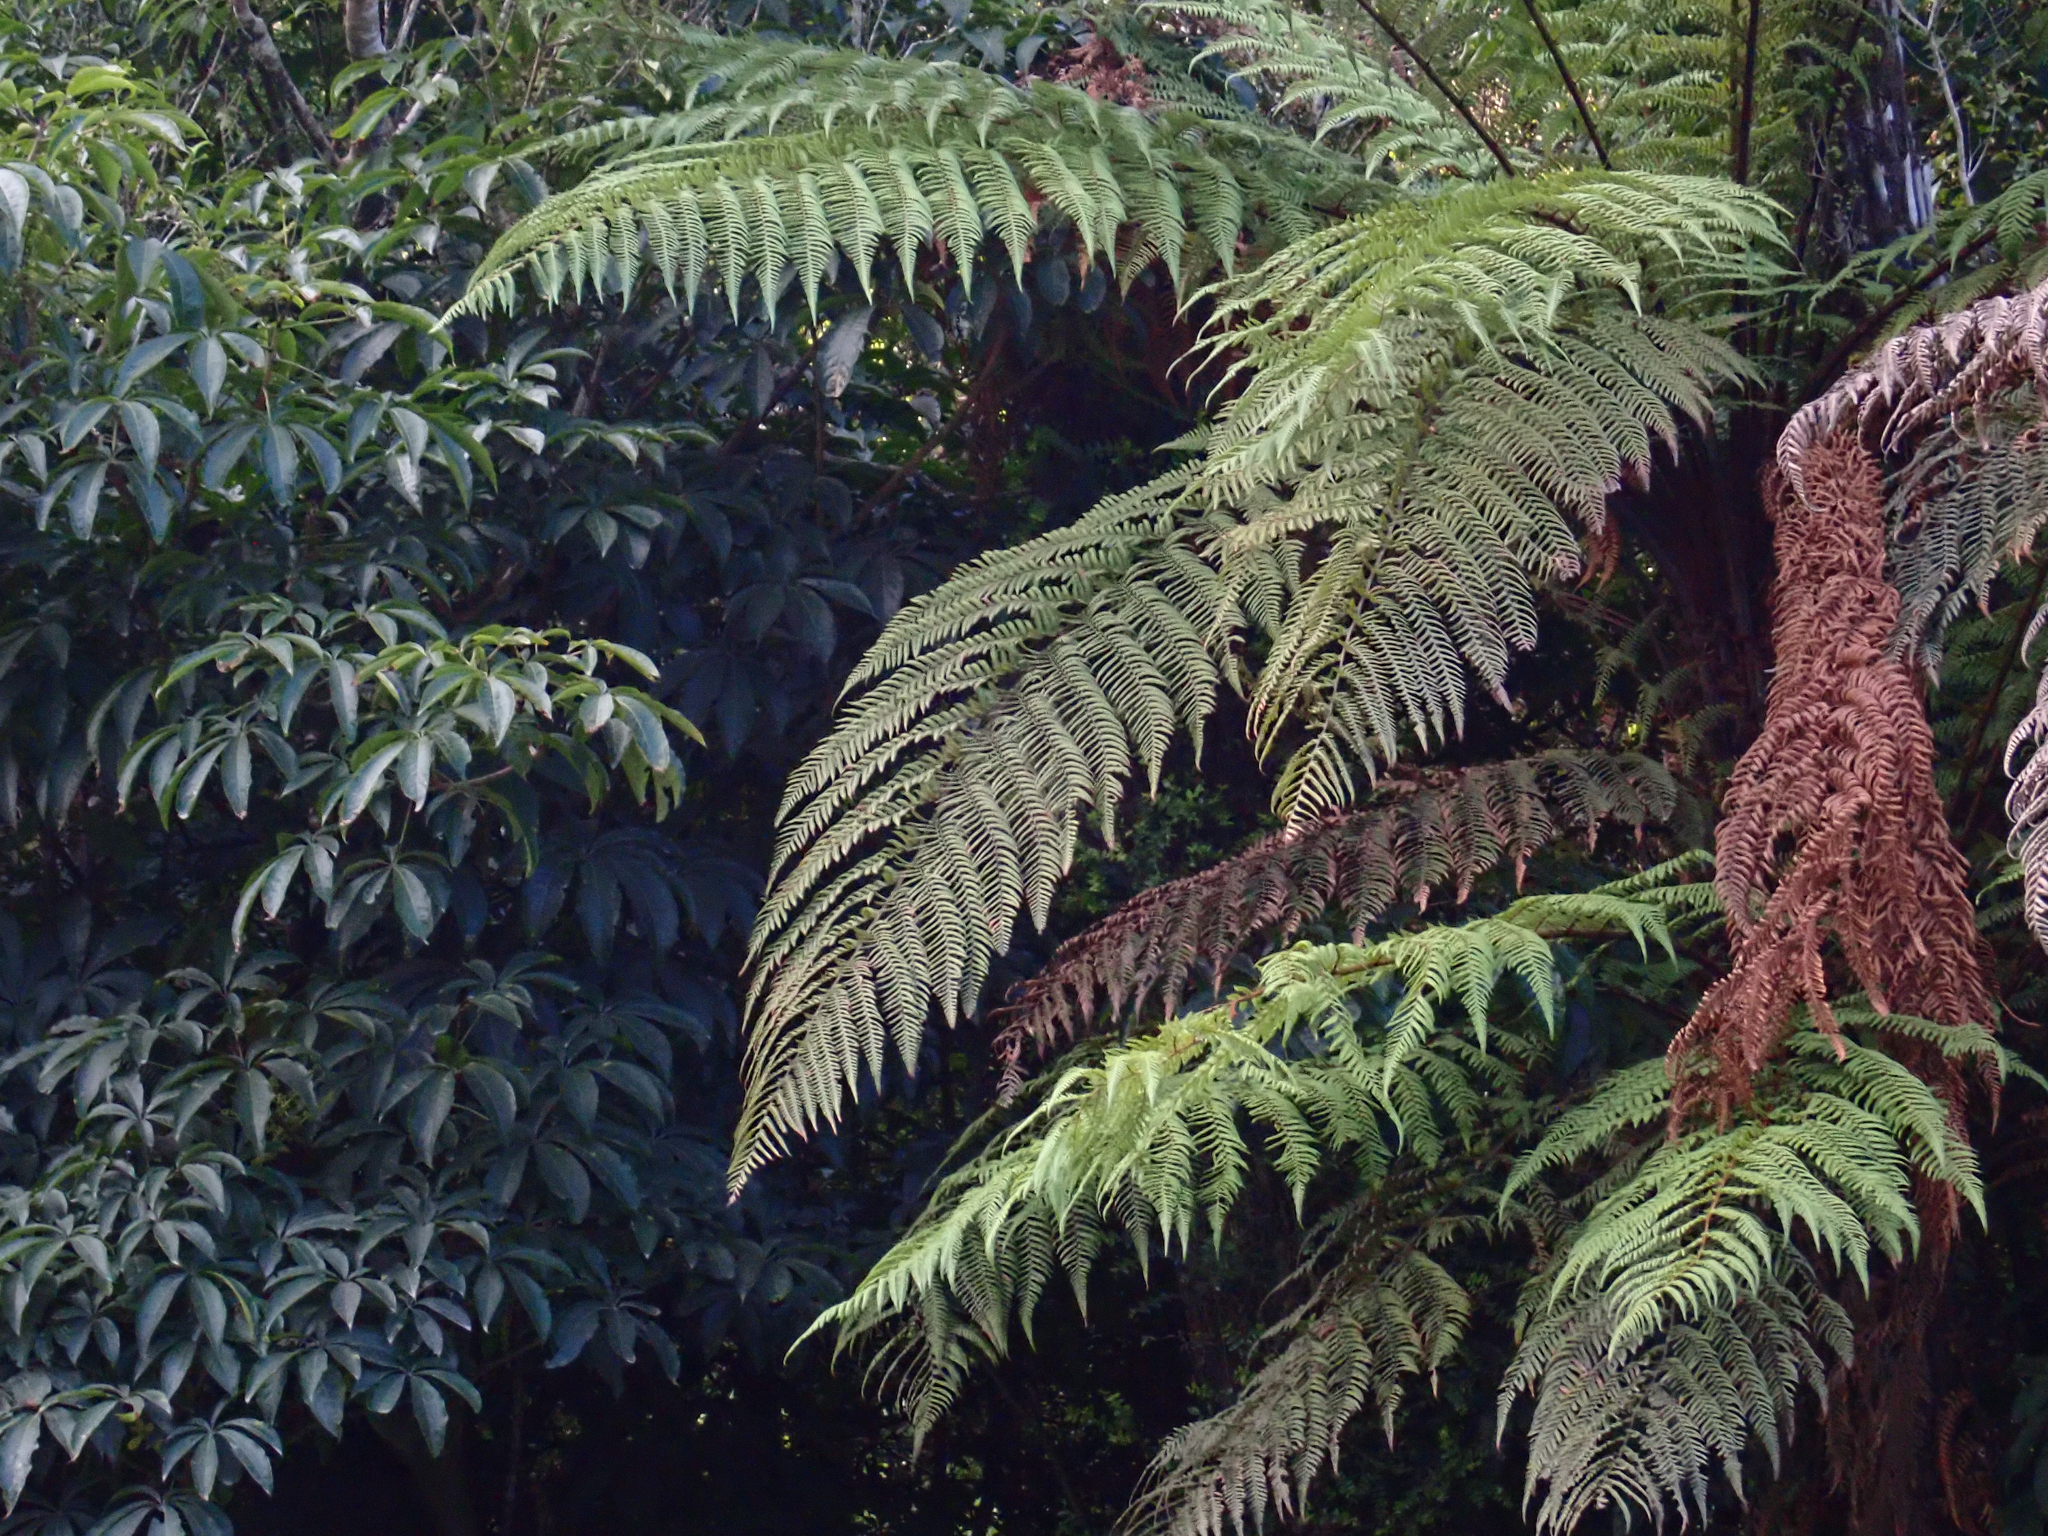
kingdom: Plantae
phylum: Tracheophyta
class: Polypodiopsida
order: Cyatheales
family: Dicksoniaceae
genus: Dicksonia
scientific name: Dicksonia squarrosa
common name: Hard treefern
